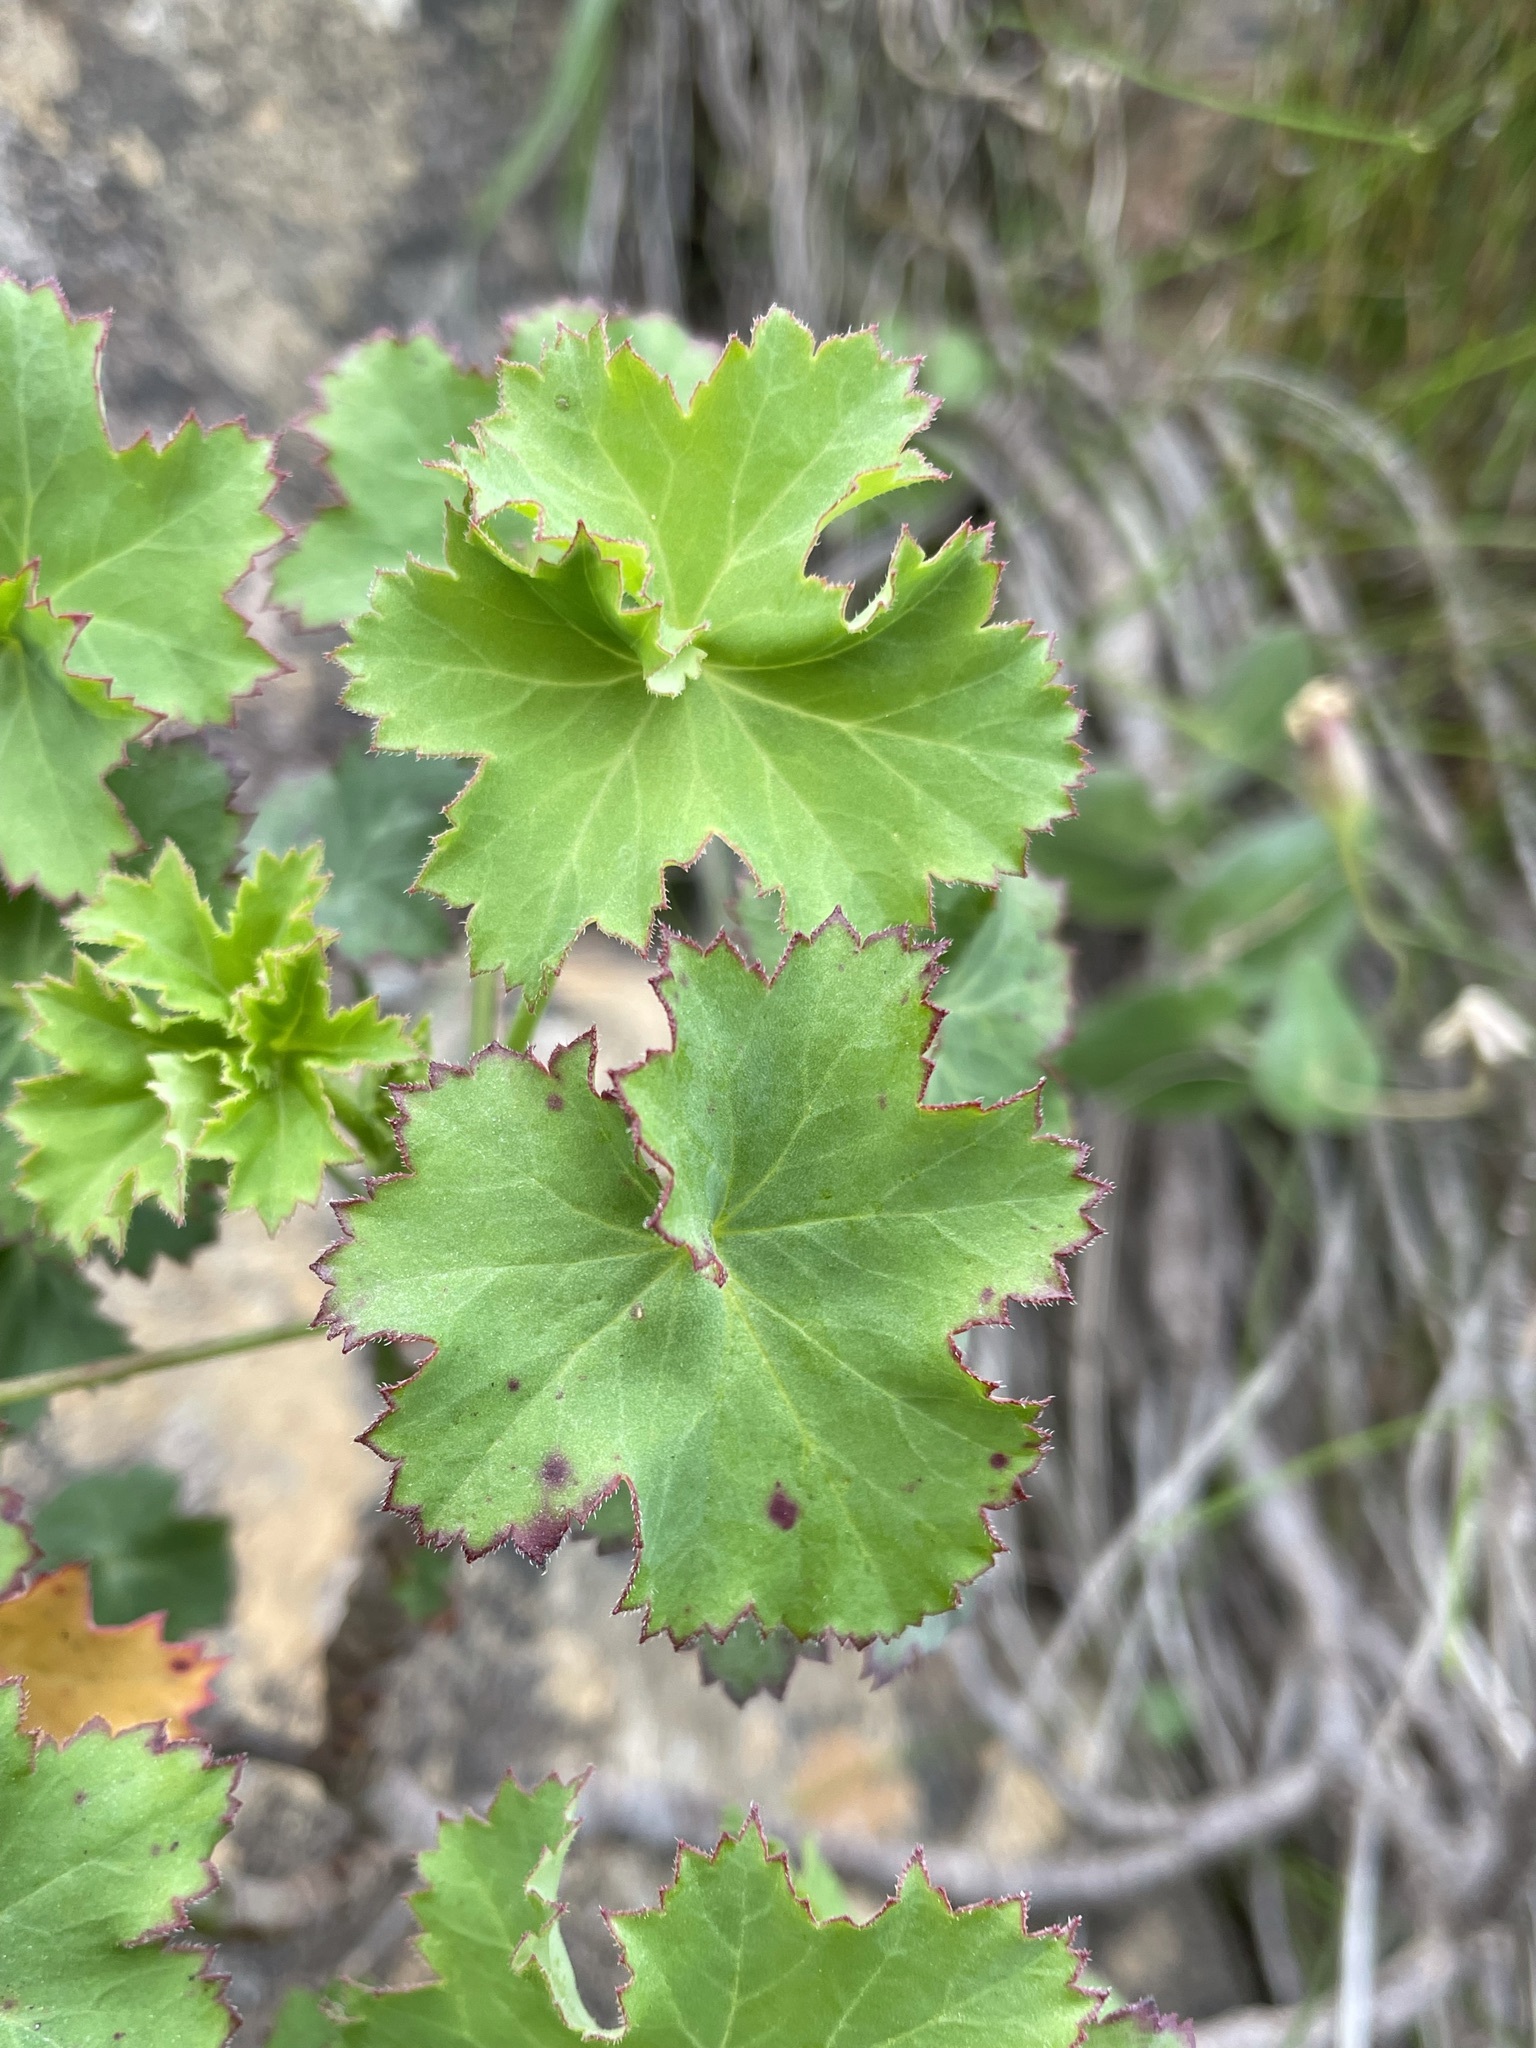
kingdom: Plantae
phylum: Tracheophyta
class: Magnoliopsida
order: Geraniales
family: Geraniaceae
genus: Pelargonium
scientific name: Pelargonium sublignosum
